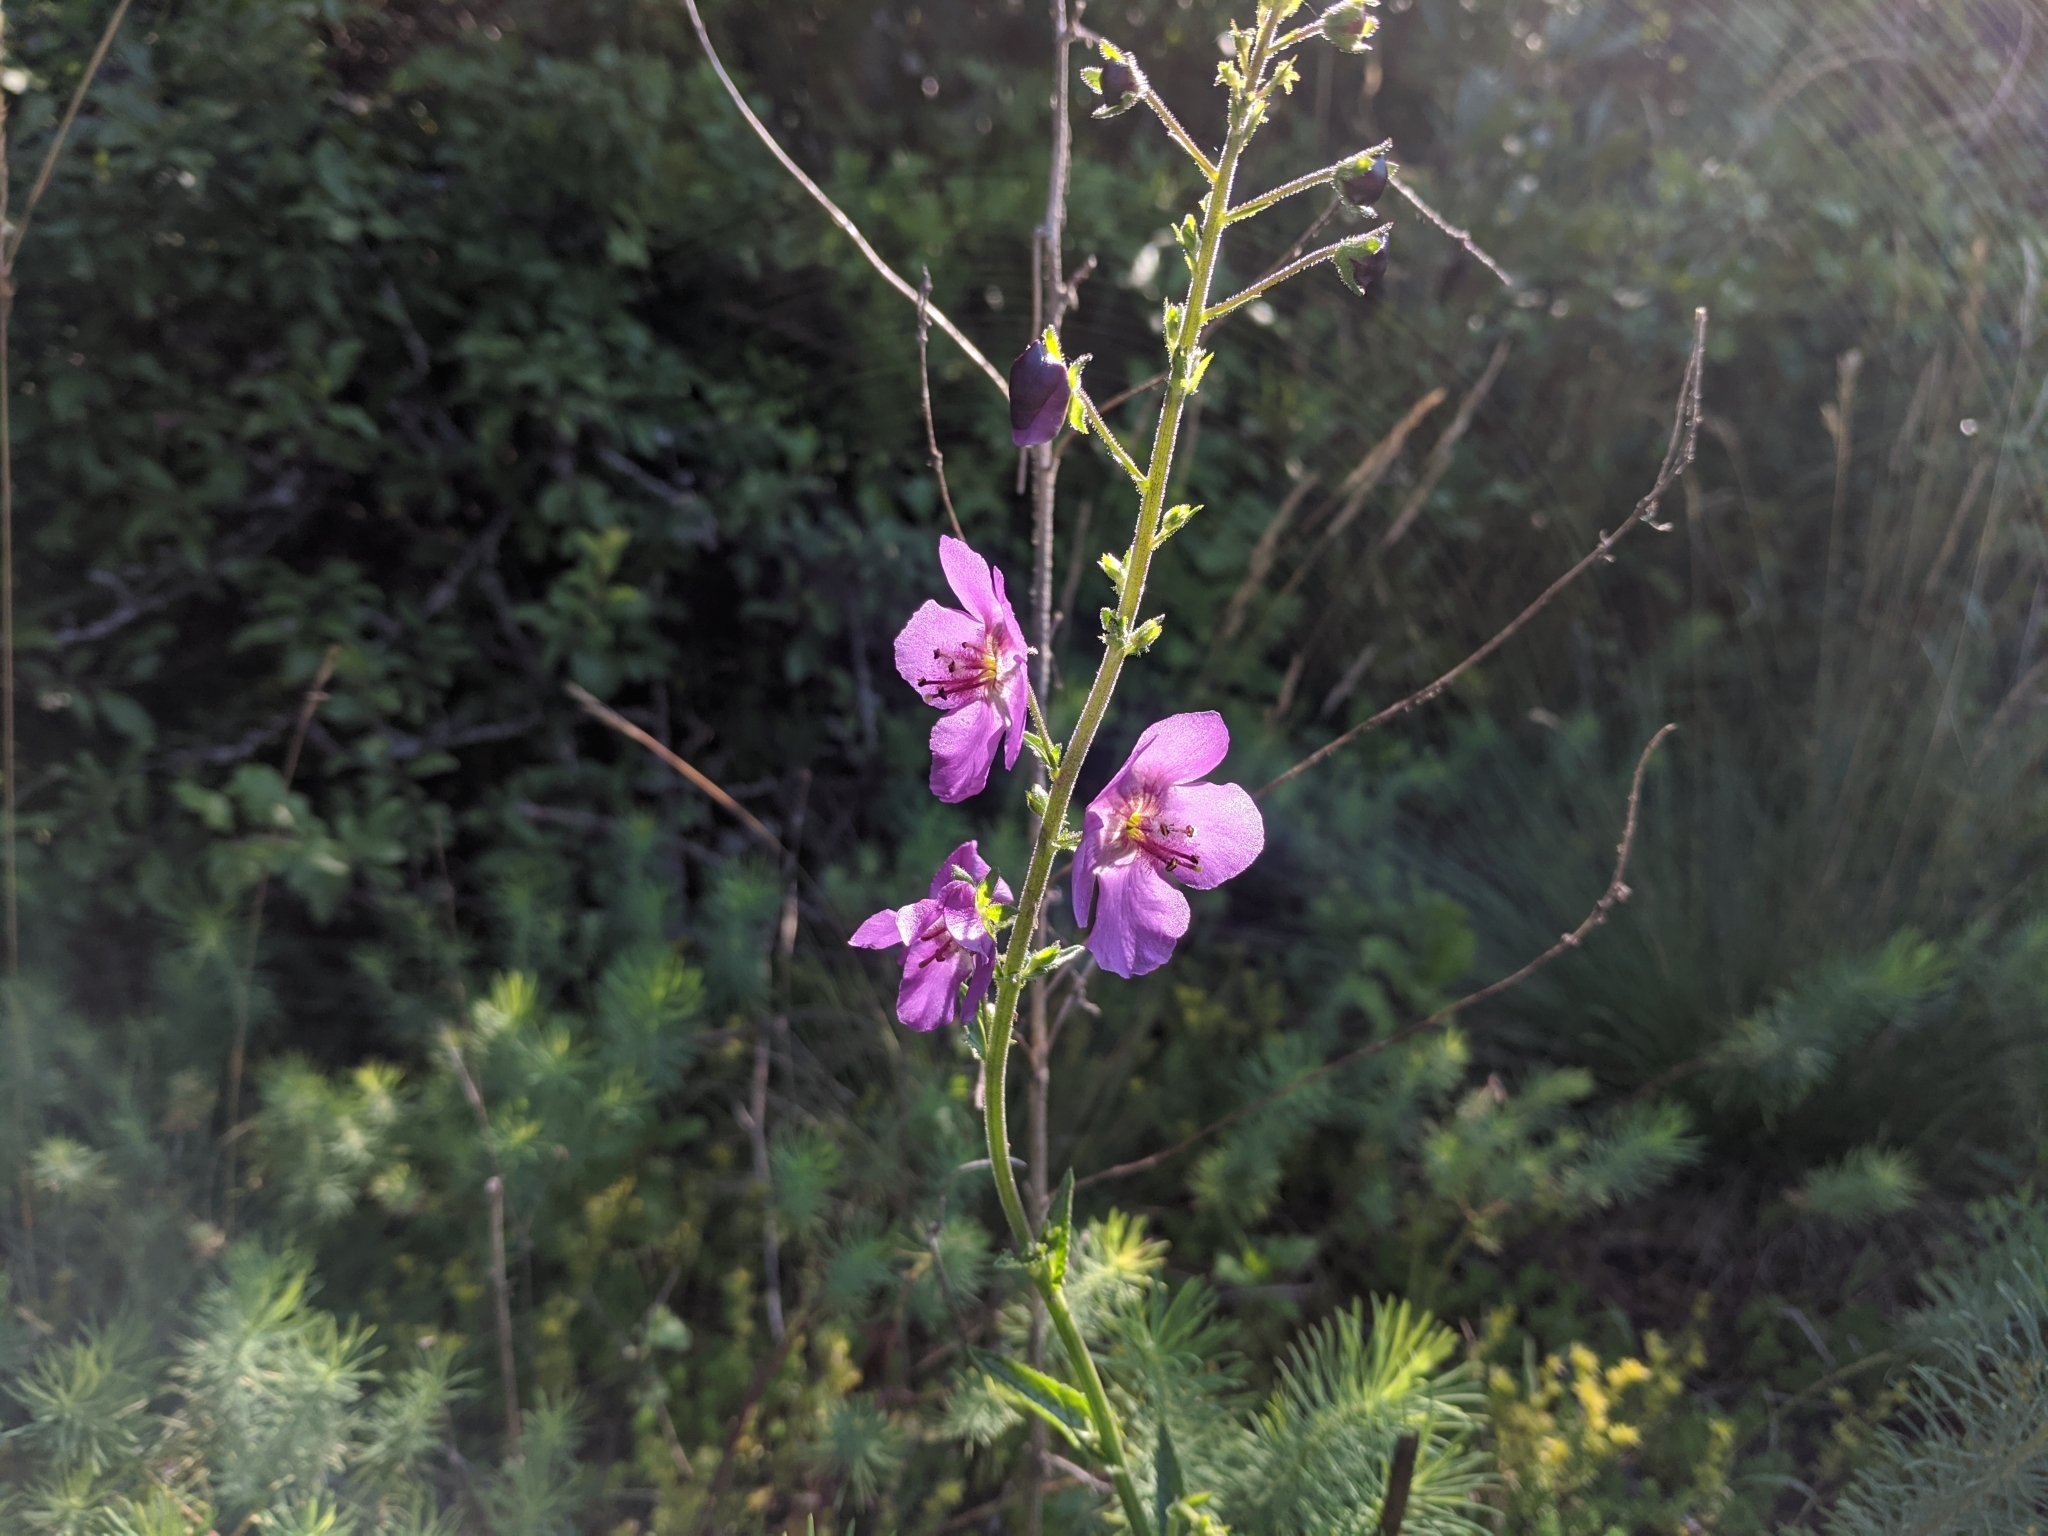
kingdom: Plantae
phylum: Tracheophyta
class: Magnoliopsida
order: Lamiales
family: Scrophulariaceae
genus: Verbascum
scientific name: Verbascum phoeniceum
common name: Purple mullein
